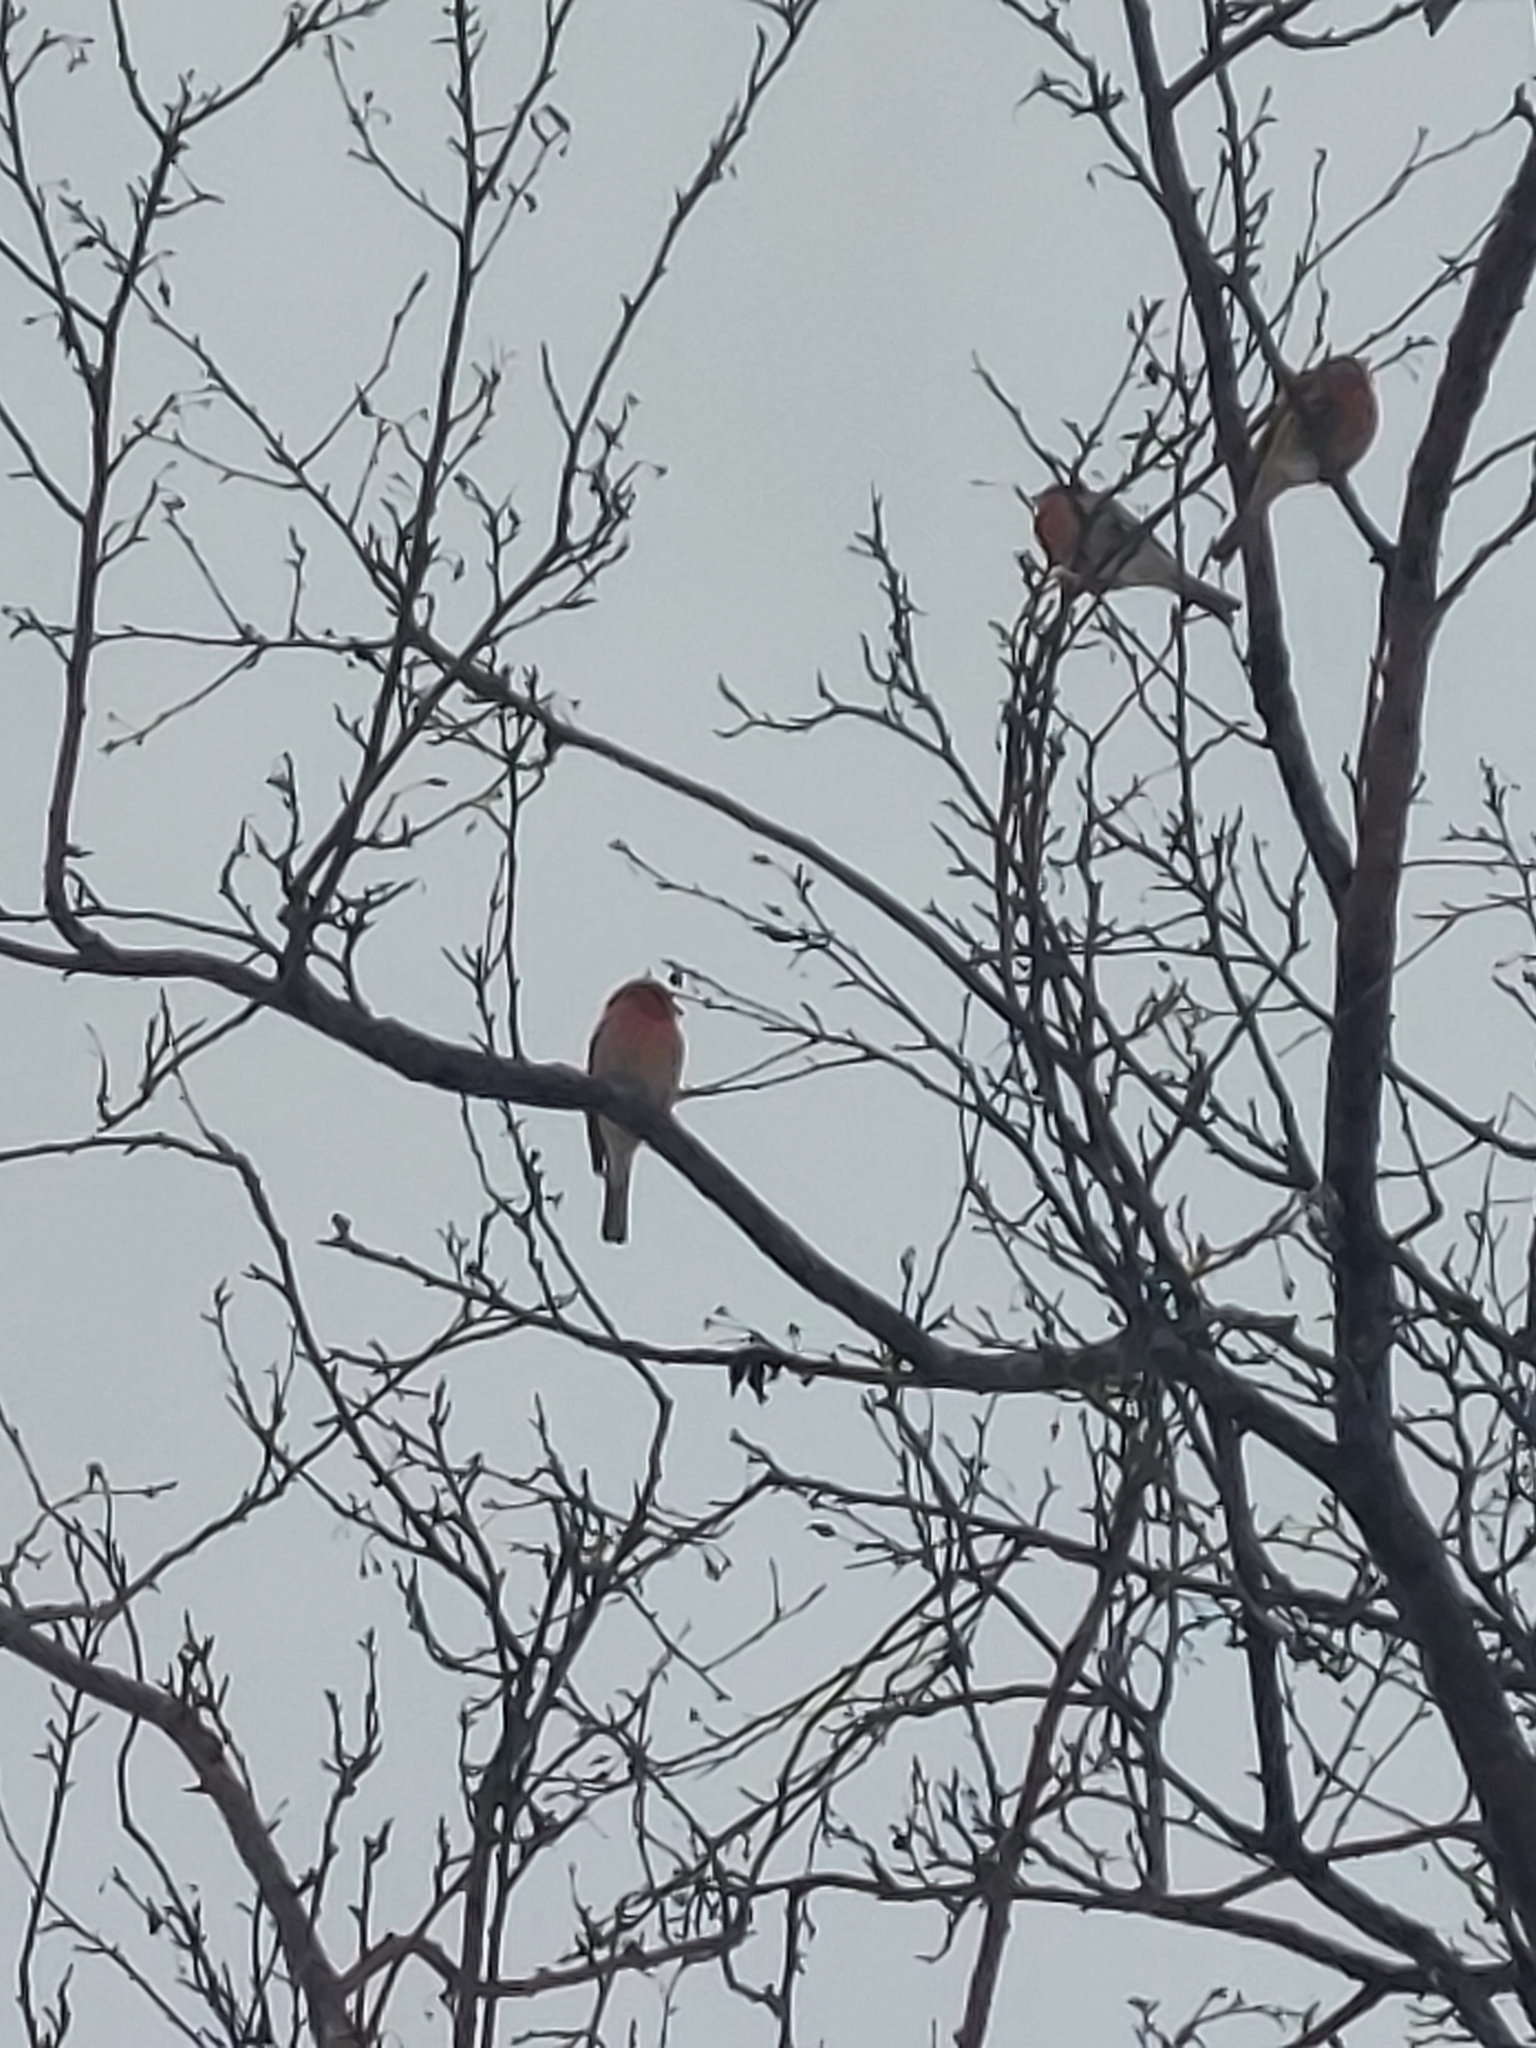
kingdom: Animalia
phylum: Chordata
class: Aves
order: Passeriformes
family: Fringillidae
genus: Haemorhous
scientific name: Haemorhous mexicanus
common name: House finch
